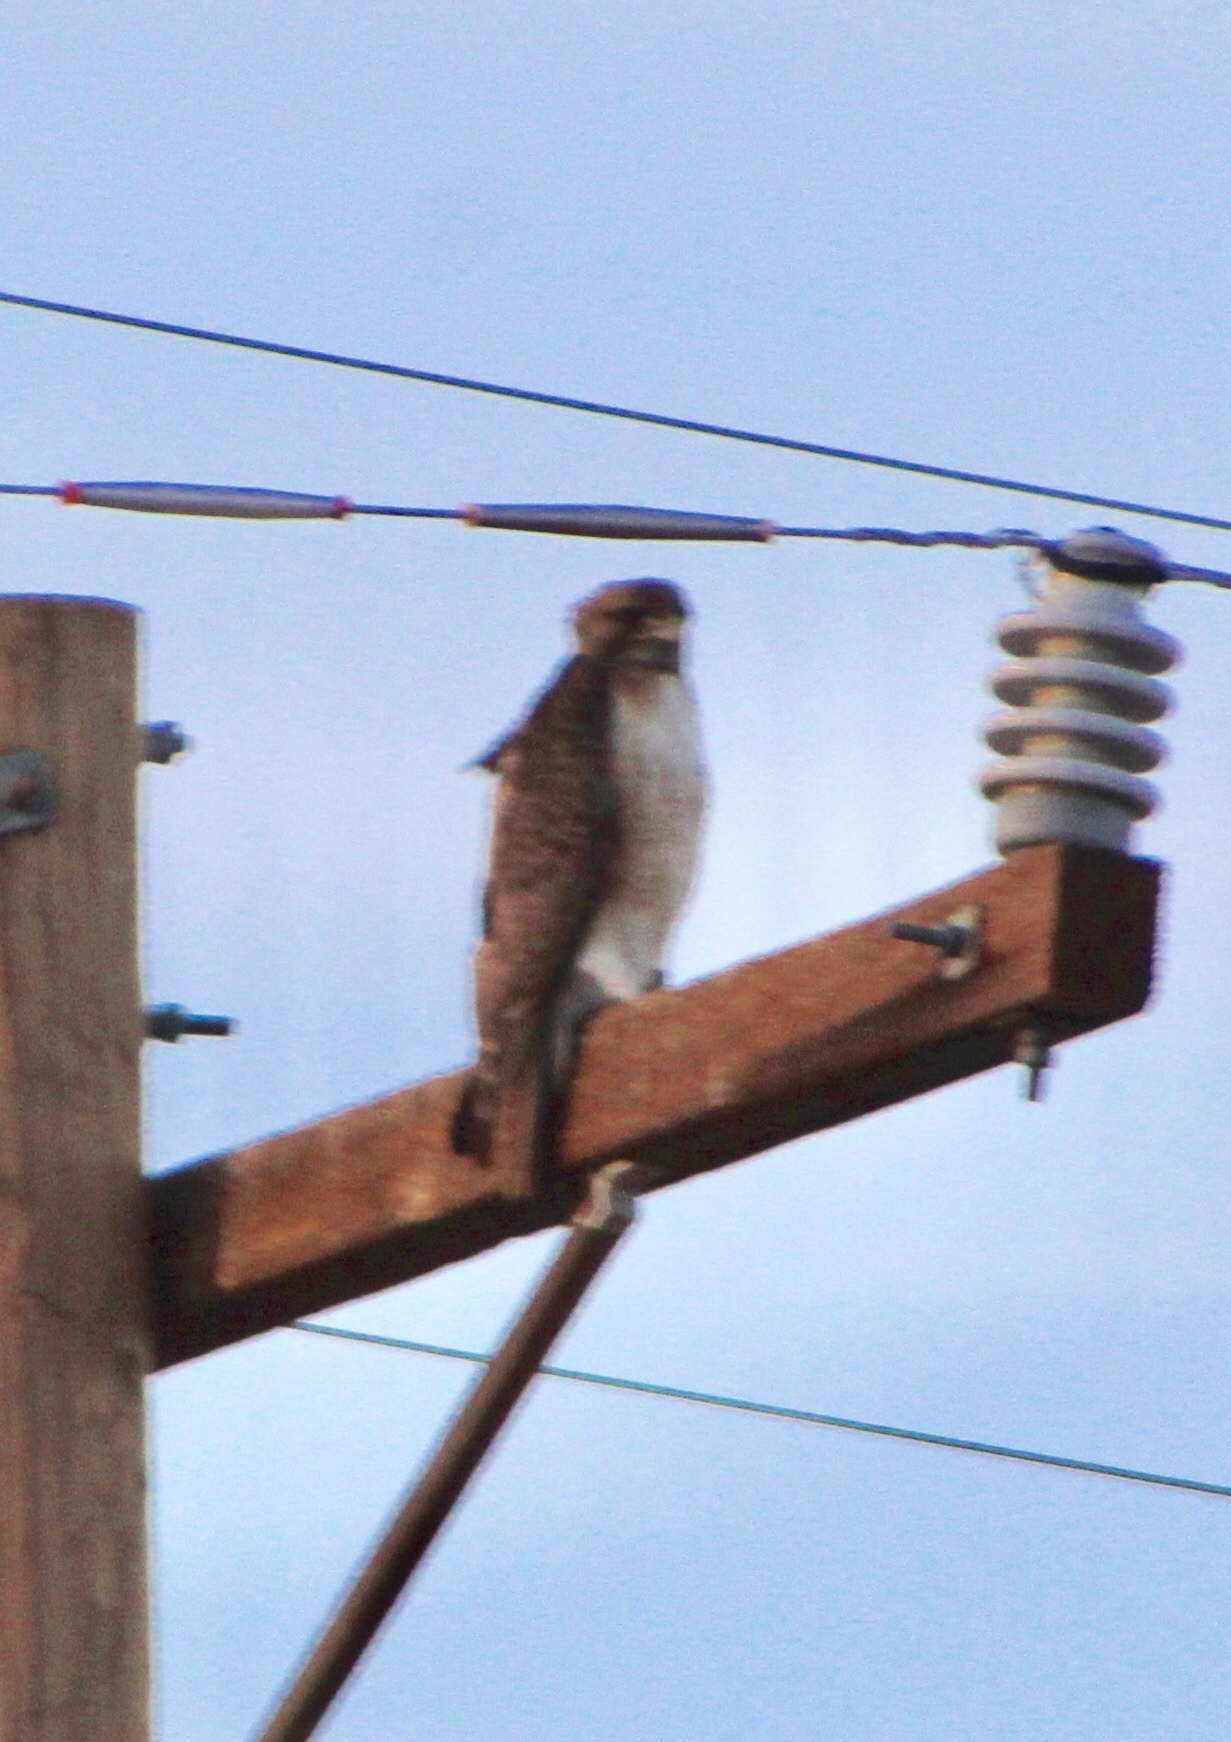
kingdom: Animalia
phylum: Chordata
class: Aves
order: Accipitriformes
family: Accipitridae
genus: Buteo
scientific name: Buteo jamaicensis
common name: Red-tailed hawk
